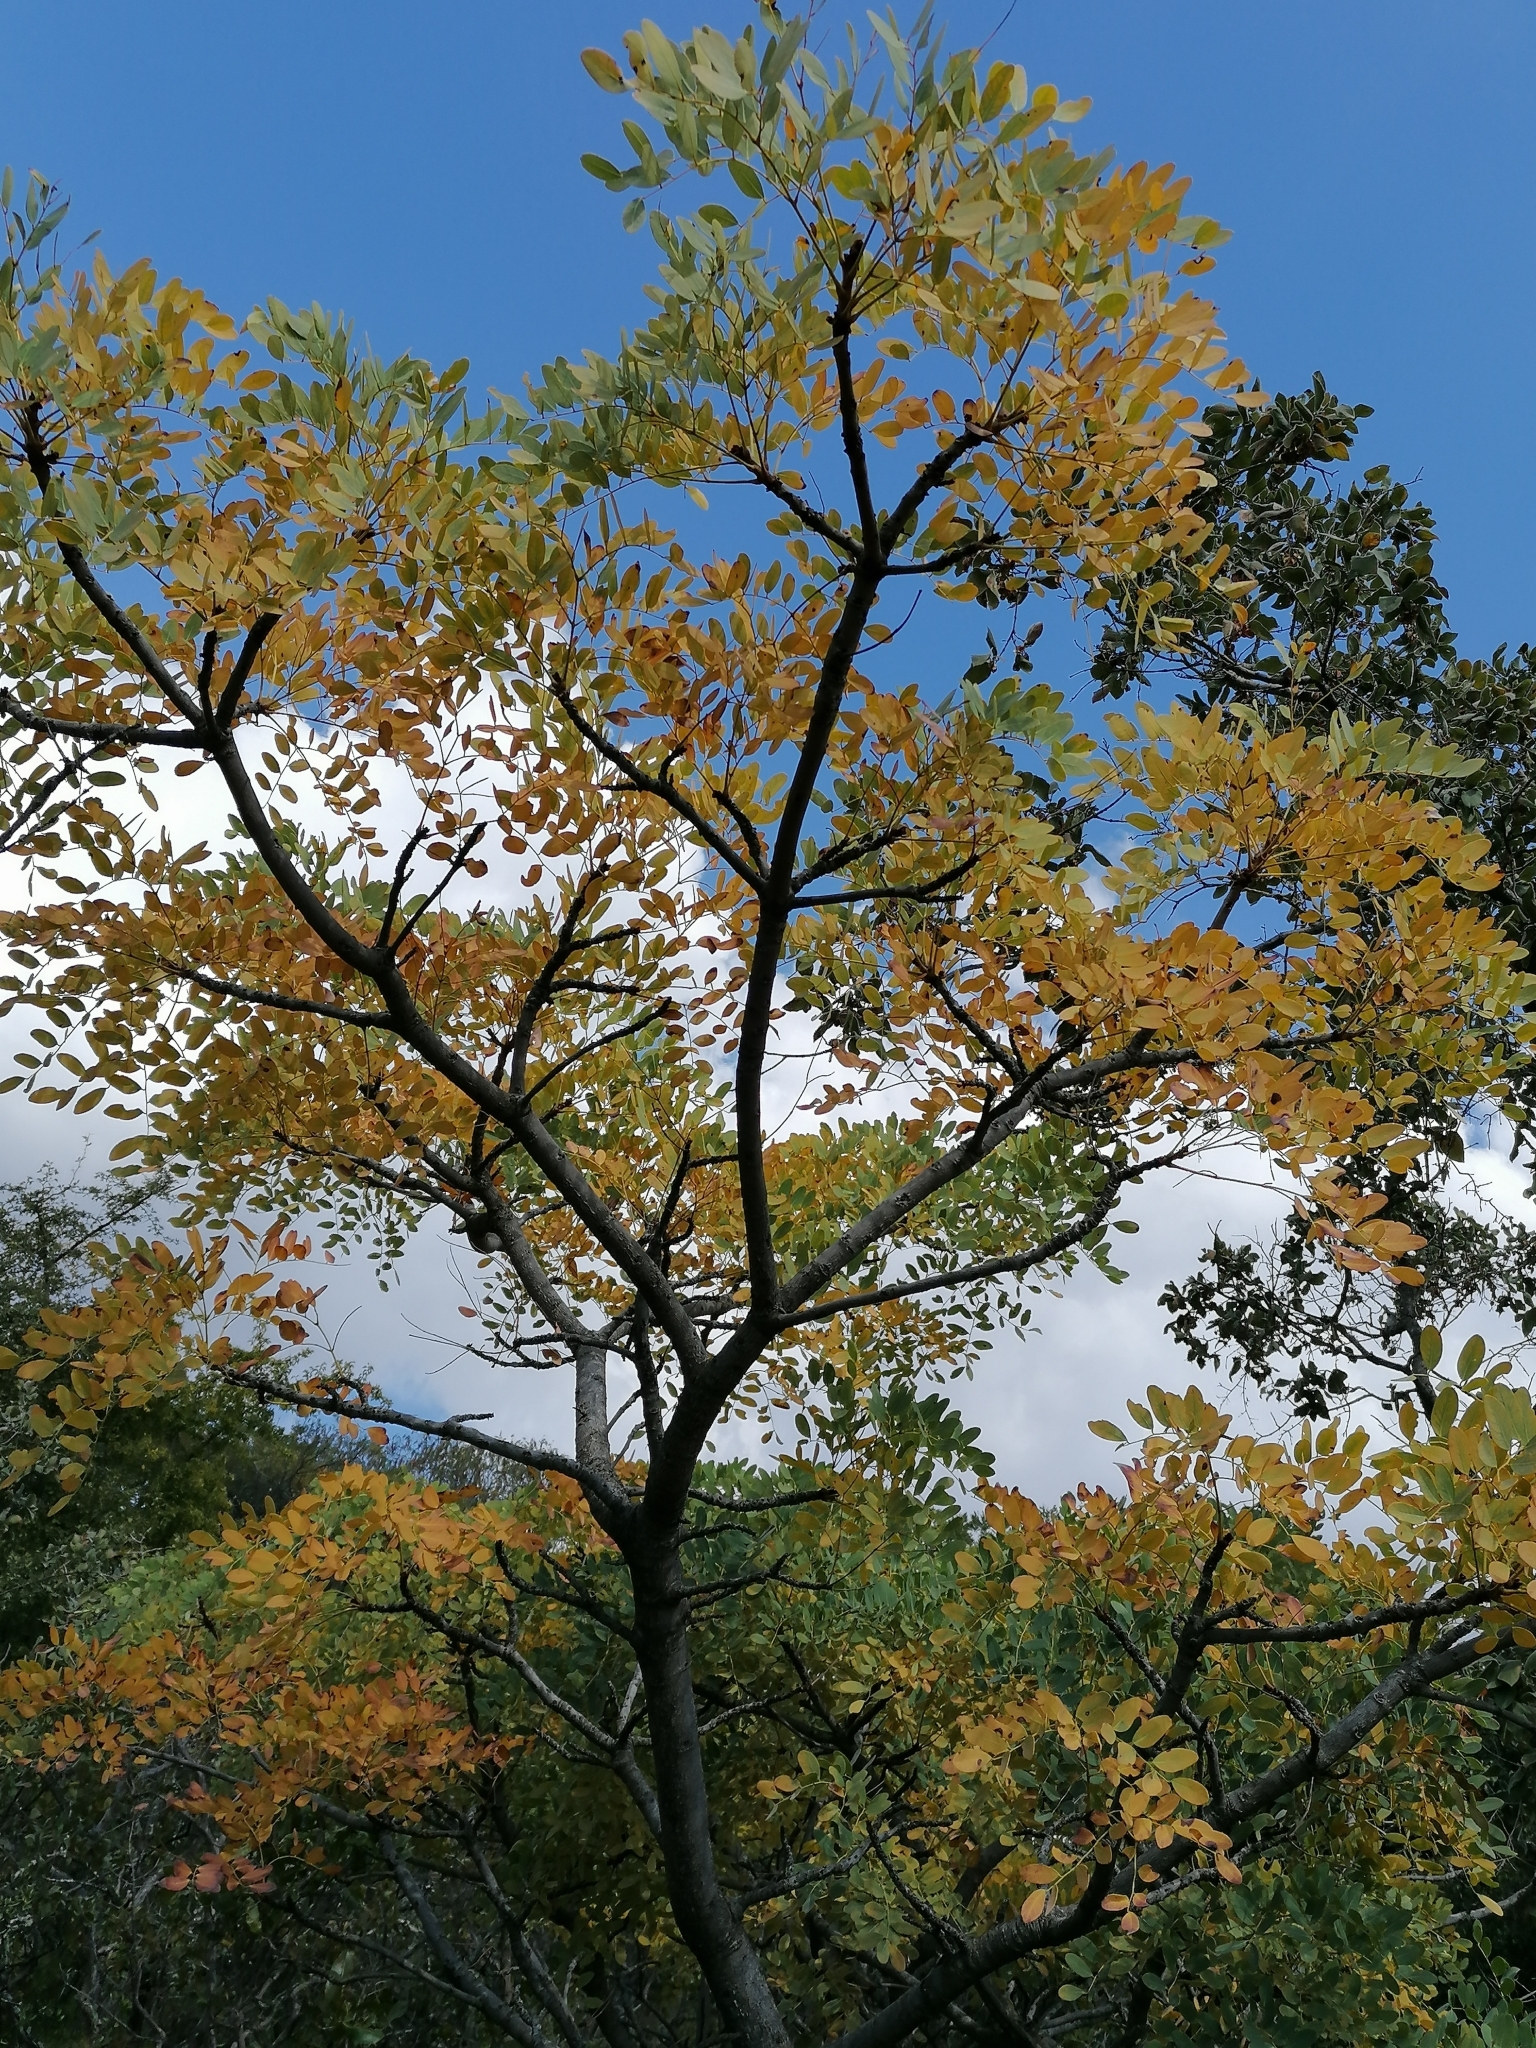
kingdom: Plantae
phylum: Tracheophyta
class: Magnoliopsida
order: Fabales
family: Fabaceae
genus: Burkea
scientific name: Burkea africana
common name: Mkalati tree
